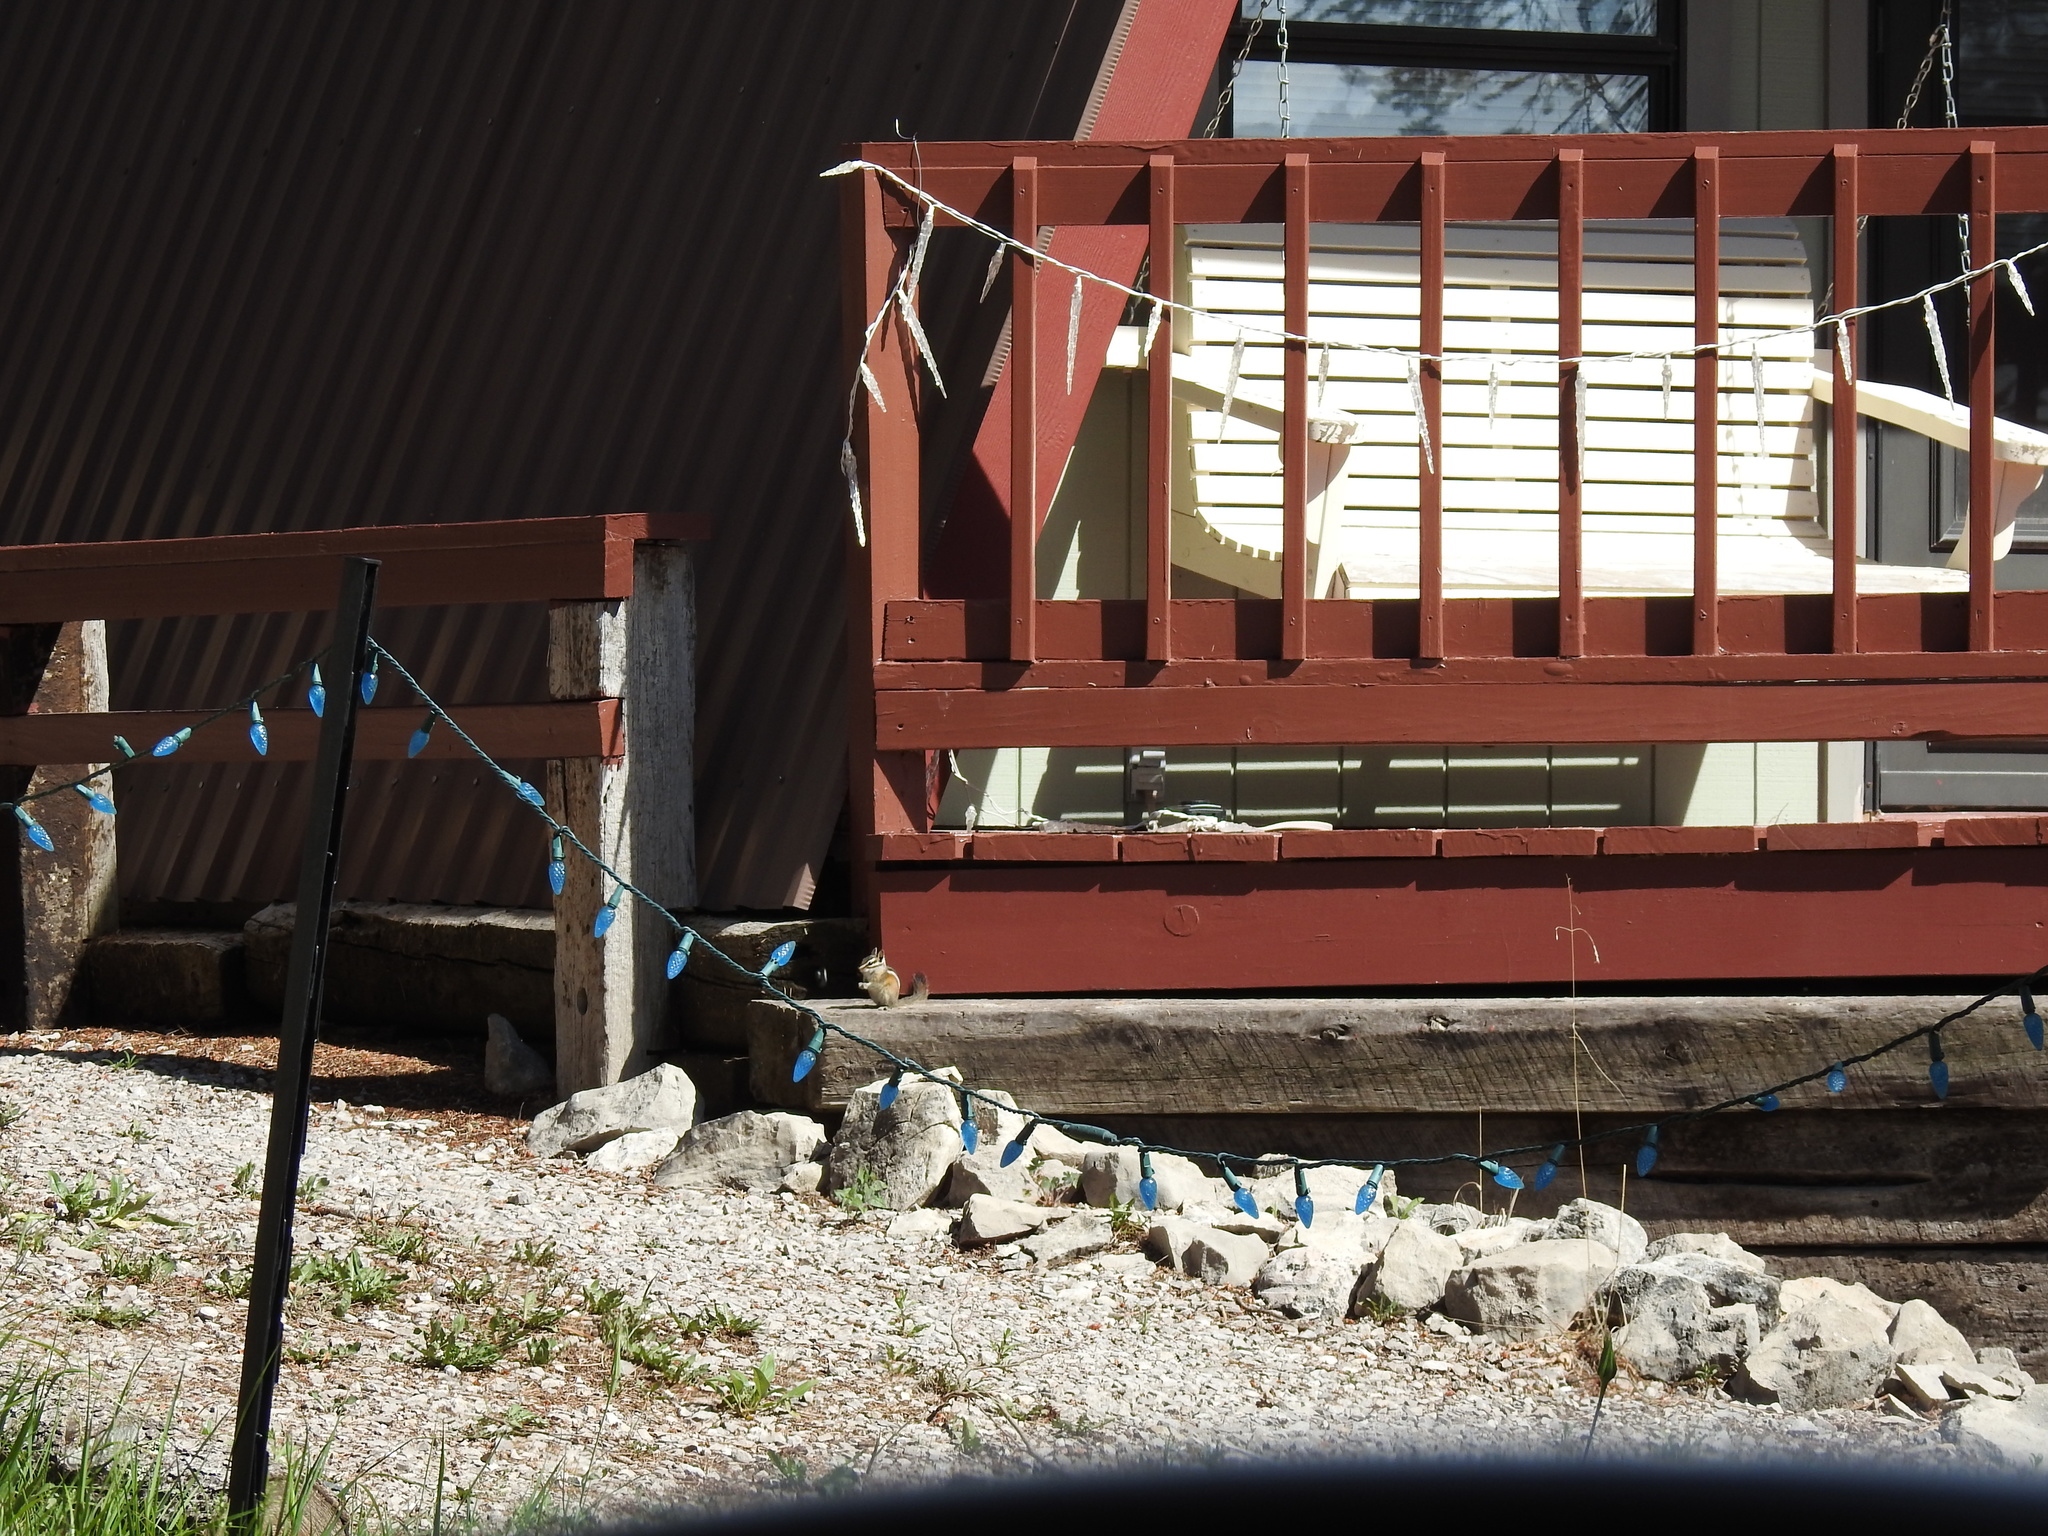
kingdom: Animalia
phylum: Chordata
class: Mammalia
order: Rodentia
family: Sciuridae
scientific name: Sciuridae
